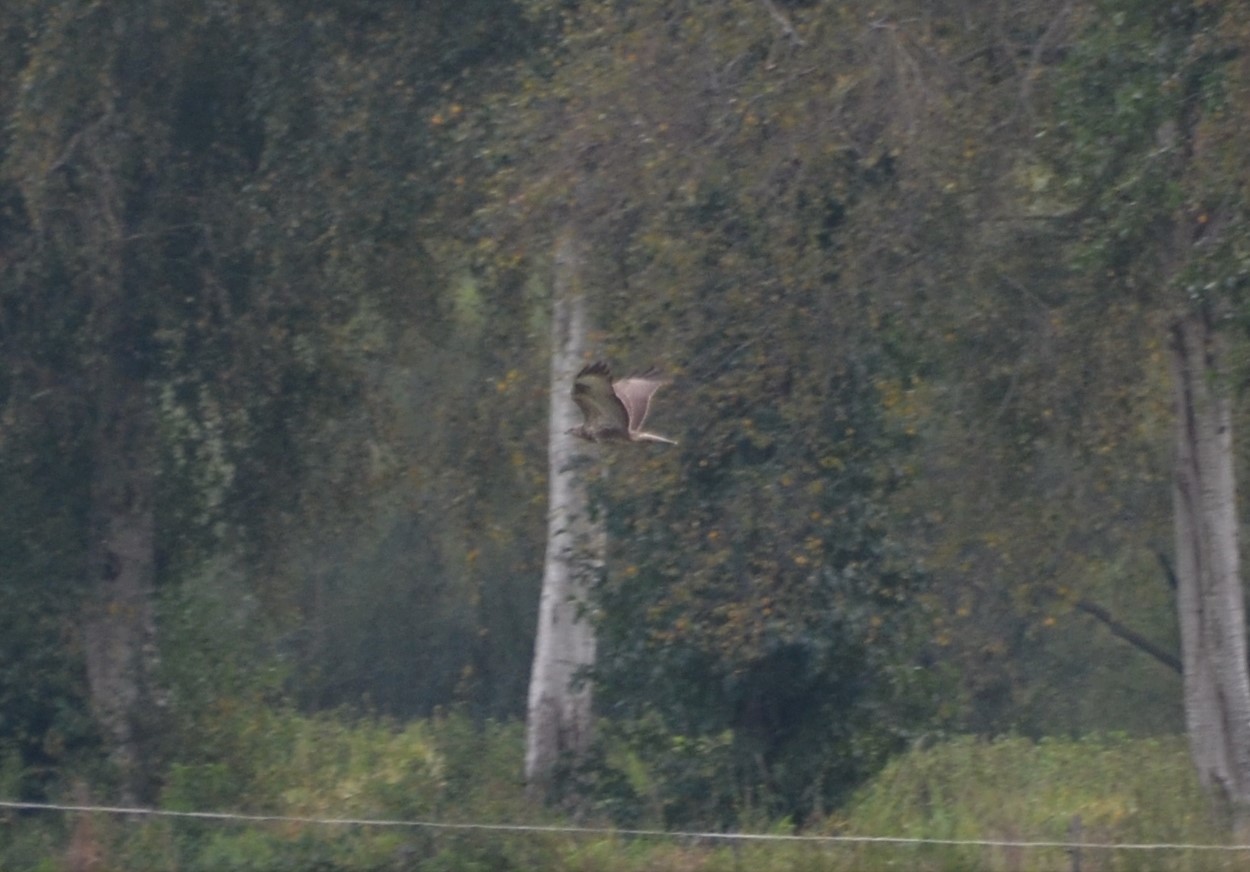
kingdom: Animalia
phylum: Chordata
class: Aves
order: Accipitriformes
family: Accipitridae
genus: Buteo
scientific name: Buteo buteo
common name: Common buzzard
